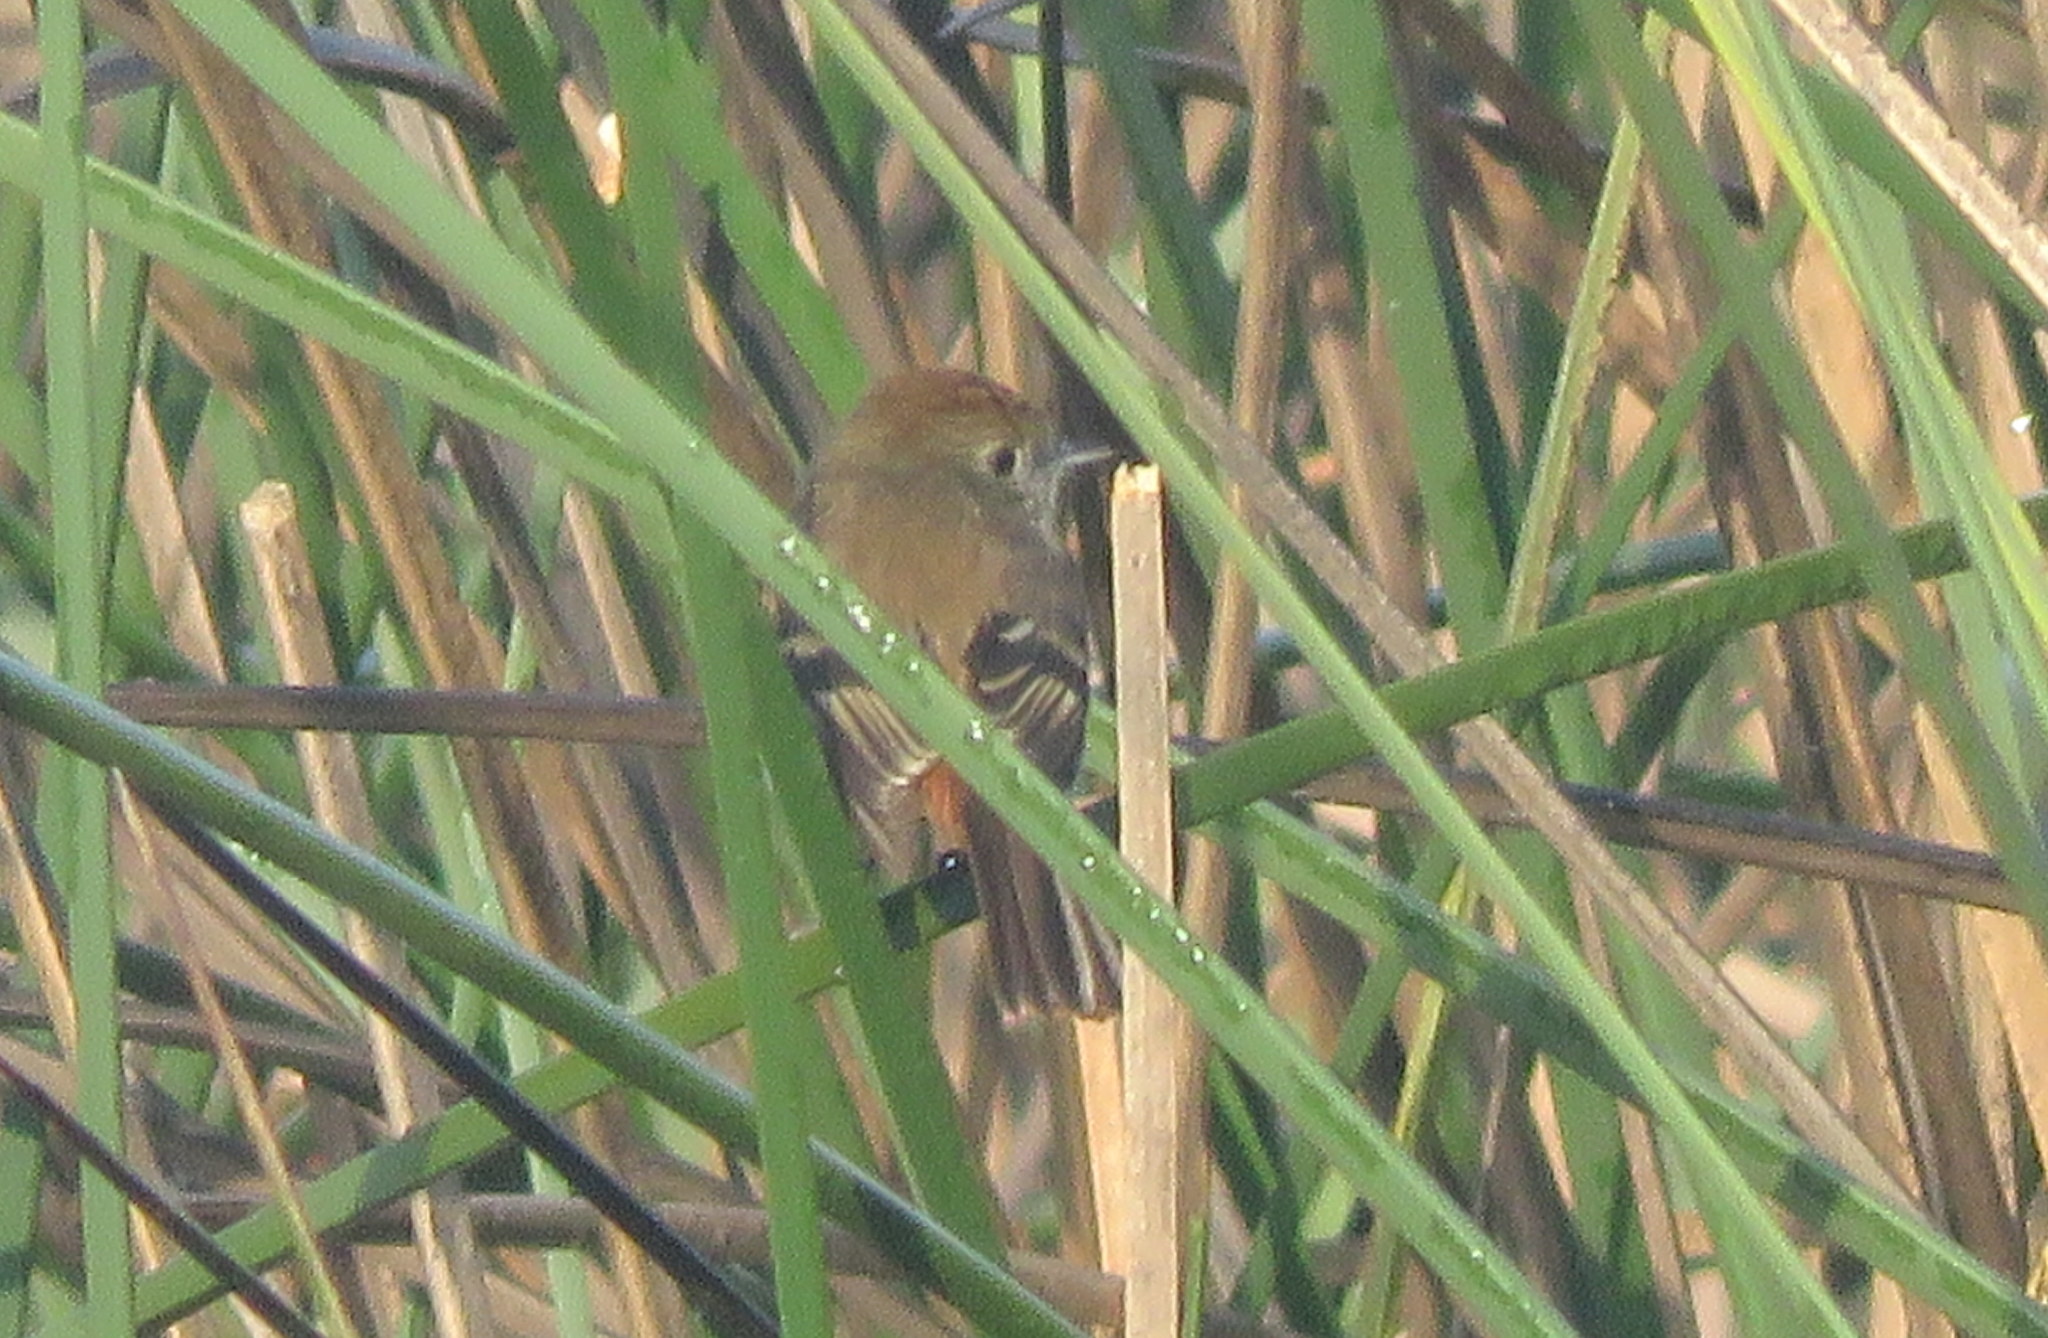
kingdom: Animalia
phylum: Chordata
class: Aves
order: Passeriformes
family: Tyrannidae
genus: Knipolegus
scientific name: Knipolegus cyanirostris
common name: Blue-billed black tyrant
